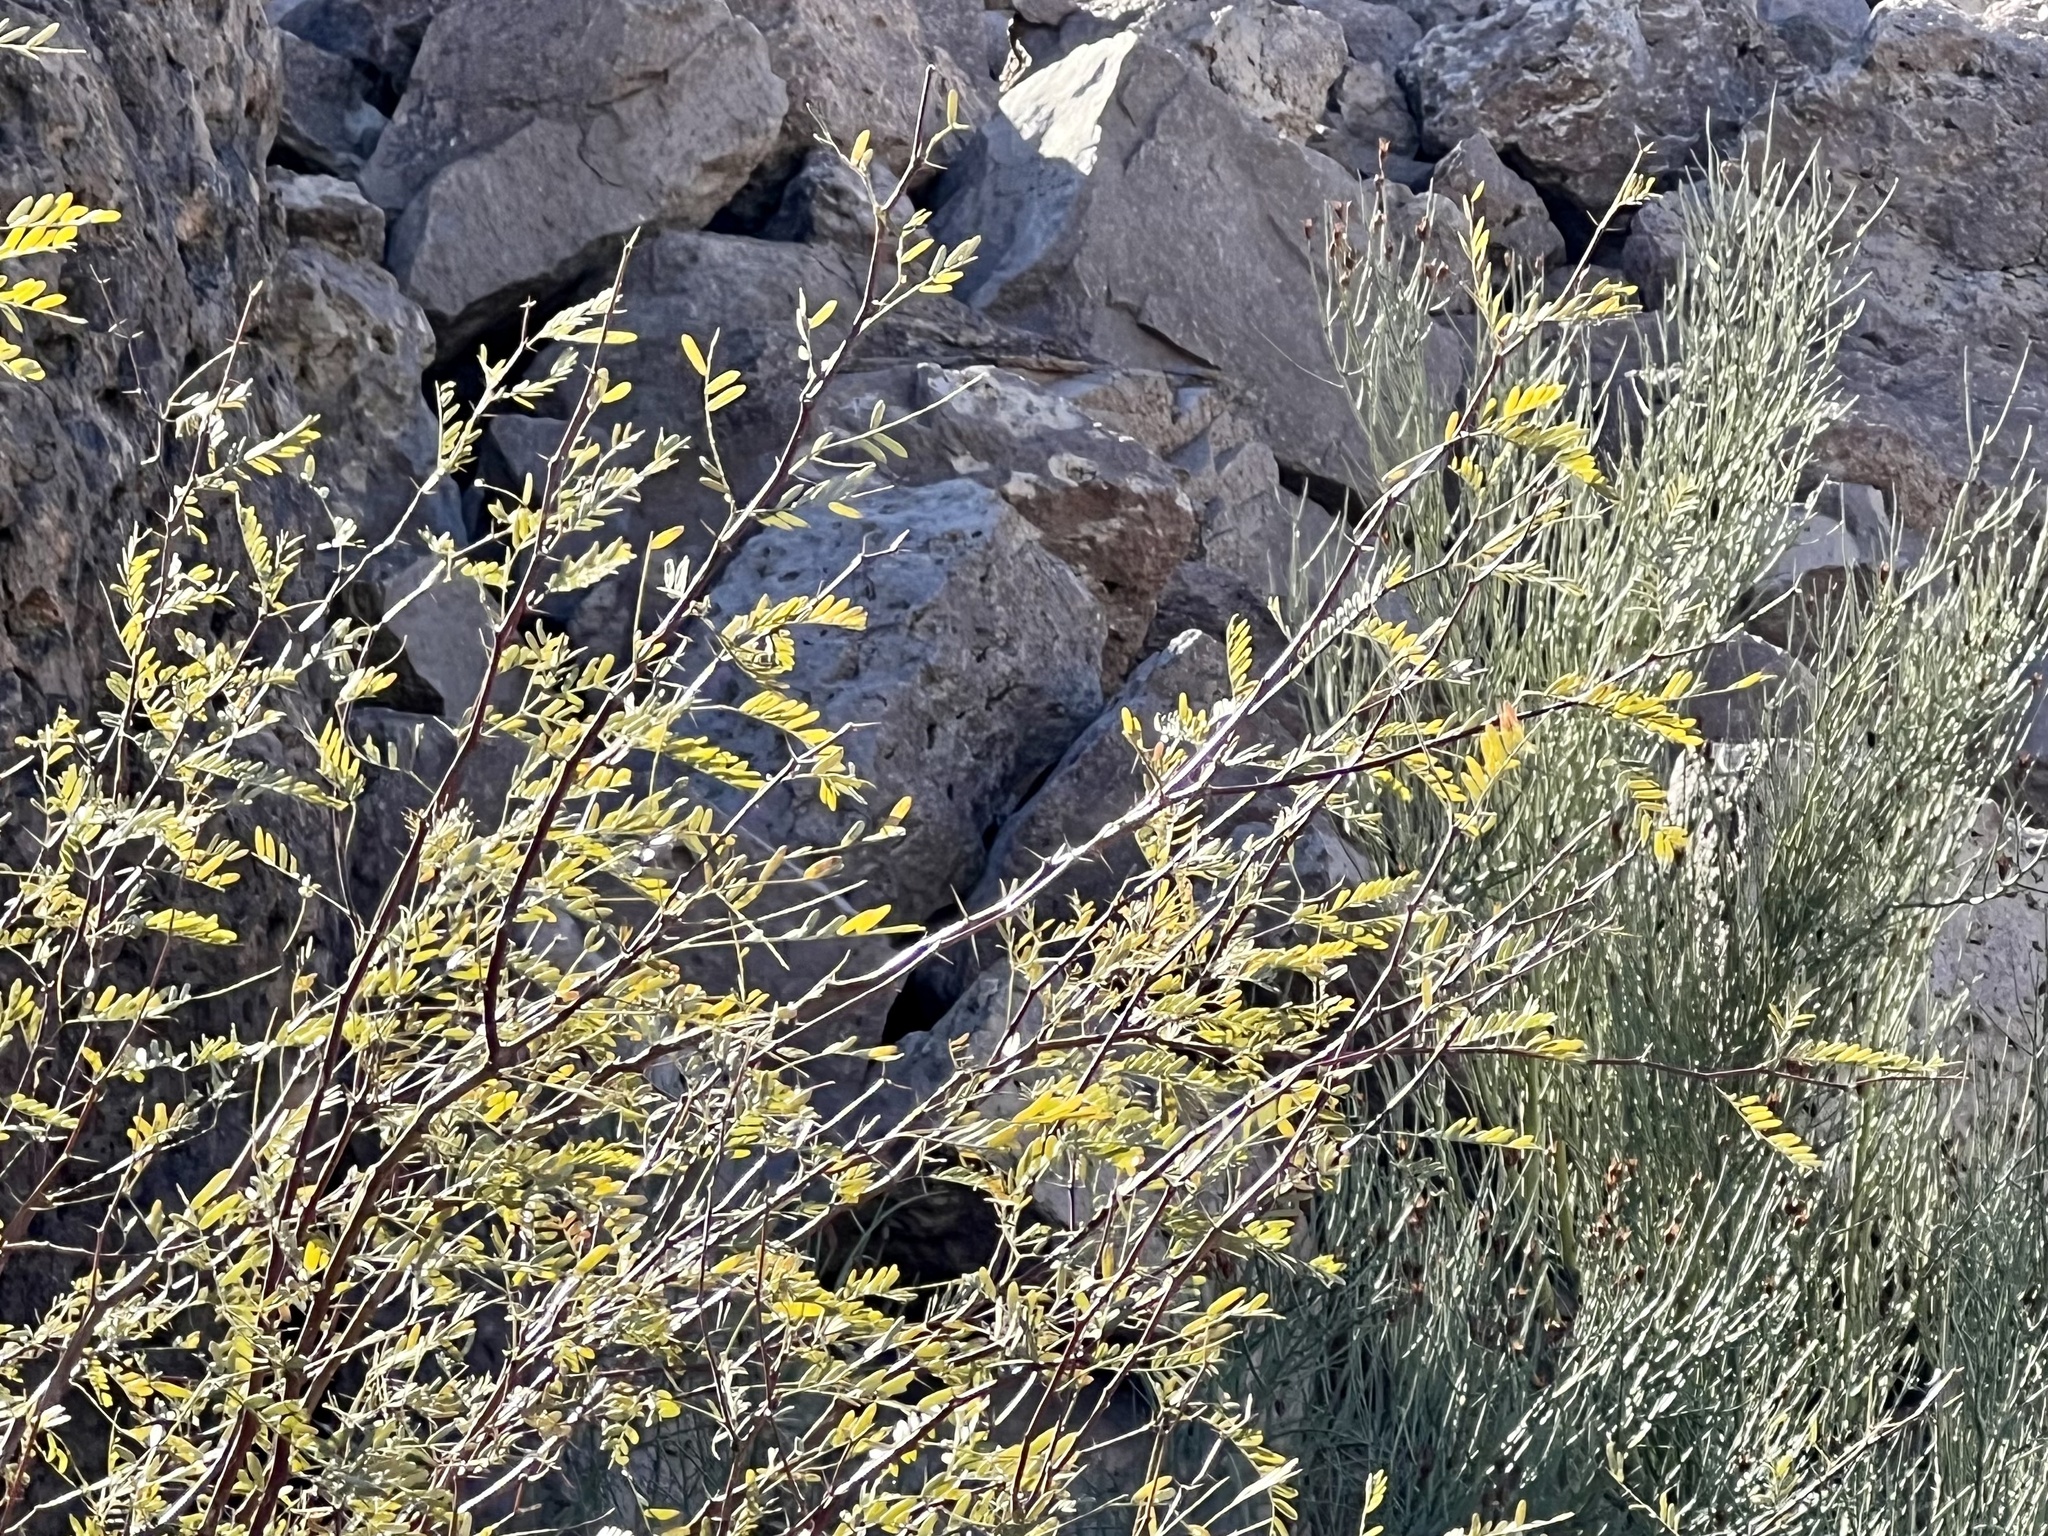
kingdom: Plantae
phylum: Tracheophyta
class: Magnoliopsida
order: Fabales
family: Fabaceae
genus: Prosopis
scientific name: Prosopis pubescens
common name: Screw-bean
